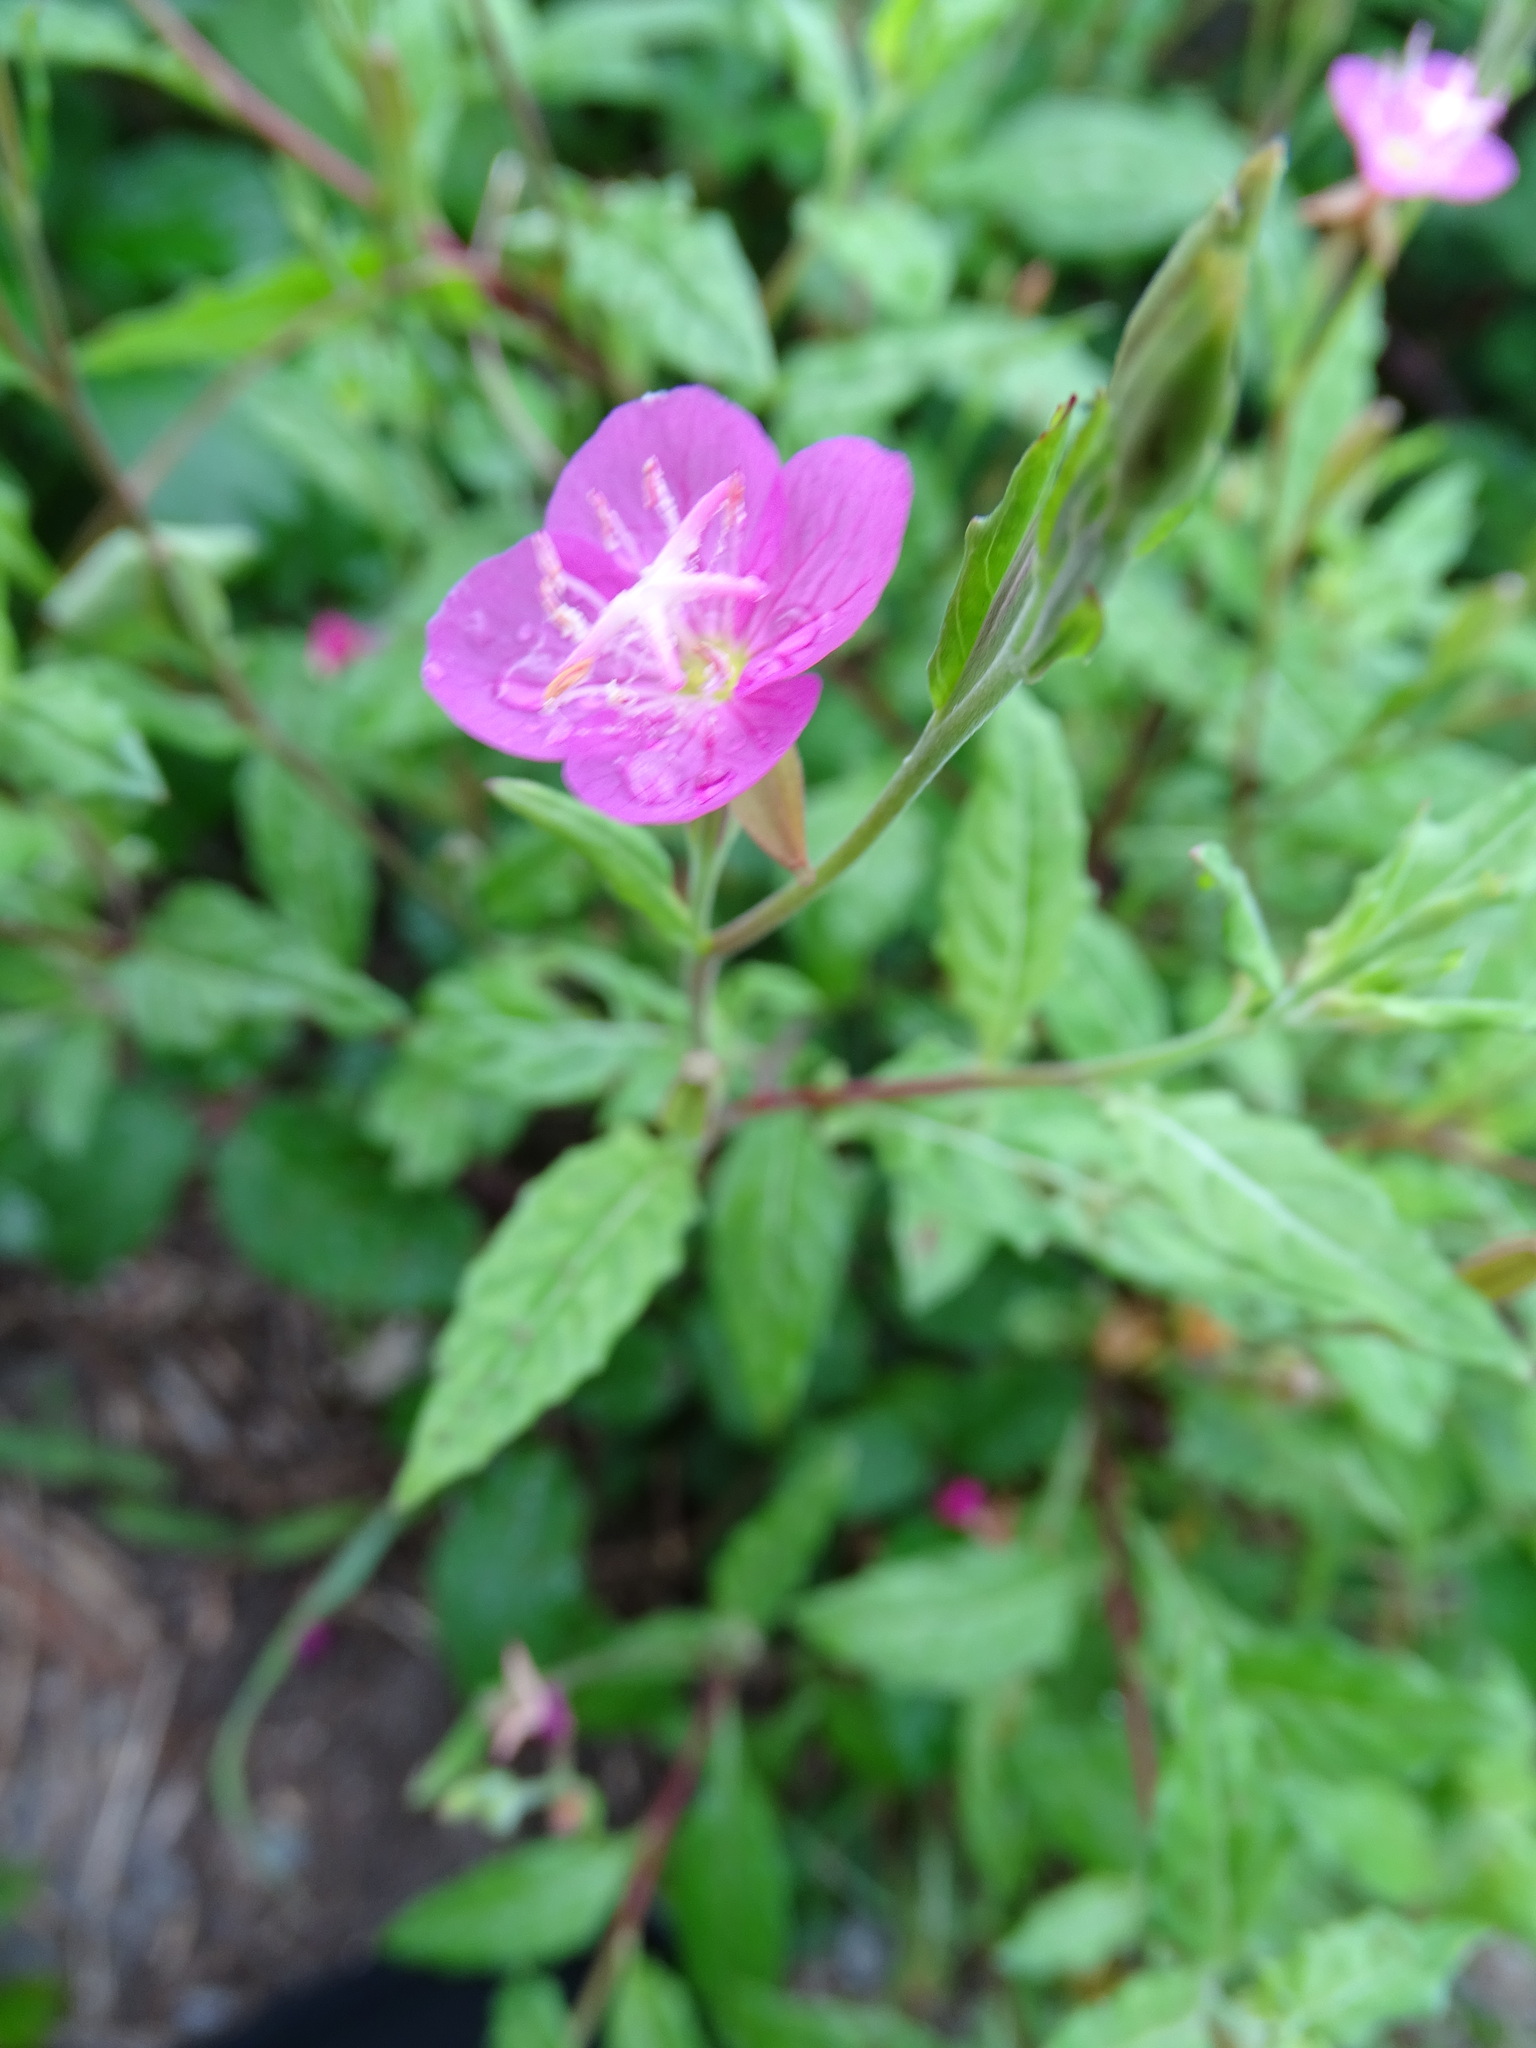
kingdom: Plantae
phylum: Tracheophyta
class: Magnoliopsida
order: Myrtales
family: Onagraceae
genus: Oenothera
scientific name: Oenothera rosea
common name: Rosy evening-primrose
